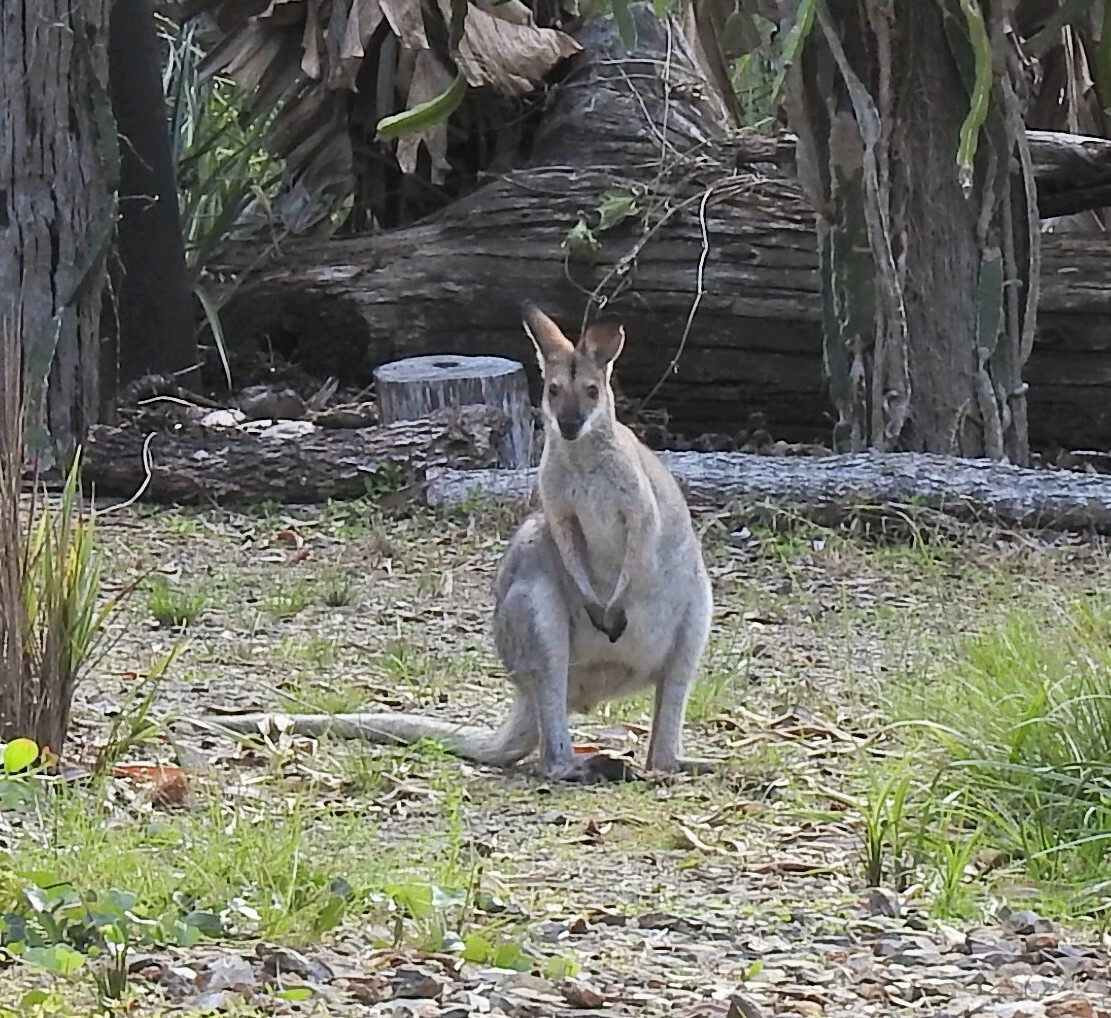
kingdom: Animalia
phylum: Chordata
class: Mammalia
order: Diprotodontia
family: Macropodidae
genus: Notamacropus
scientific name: Notamacropus rufogriseus
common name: Red-necked wallaby
